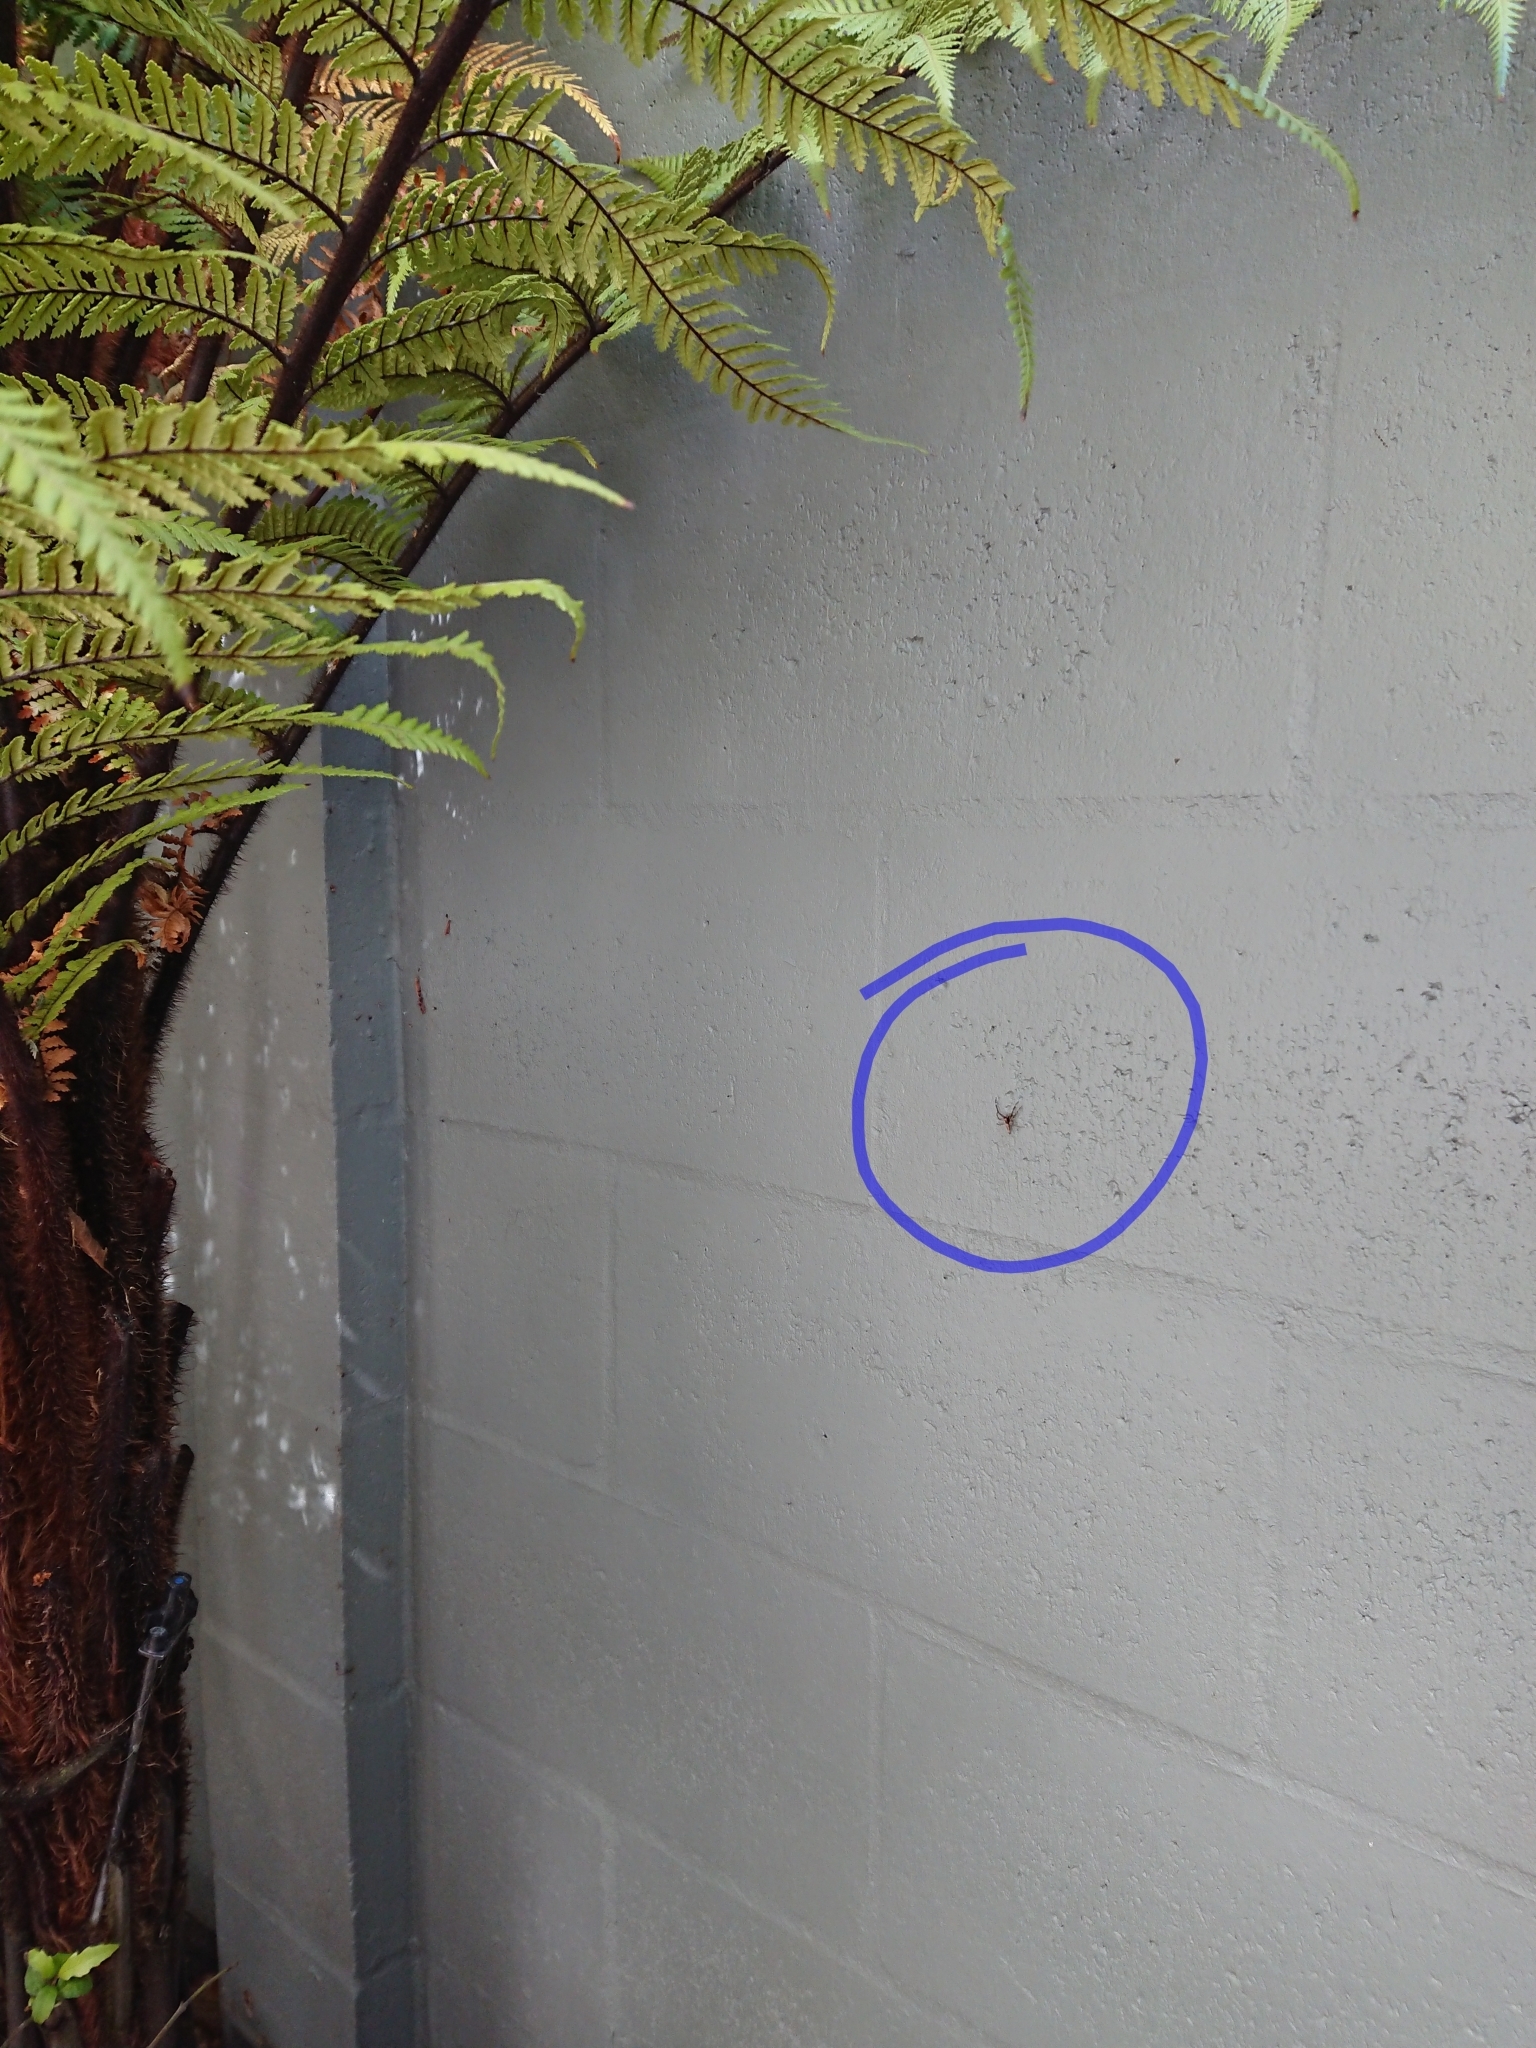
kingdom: Animalia
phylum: Arthropoda
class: Arachnida
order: Araneae
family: Salticidae
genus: Helpis
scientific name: Helpis minitabunda
